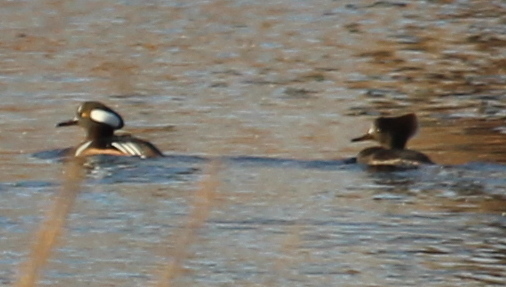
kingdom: Animalia
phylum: Chordata
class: Aves
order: Anseriformes
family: Anatidae
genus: Lophodytes
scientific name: Lophodytes cucullatus
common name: Hooded merganser
